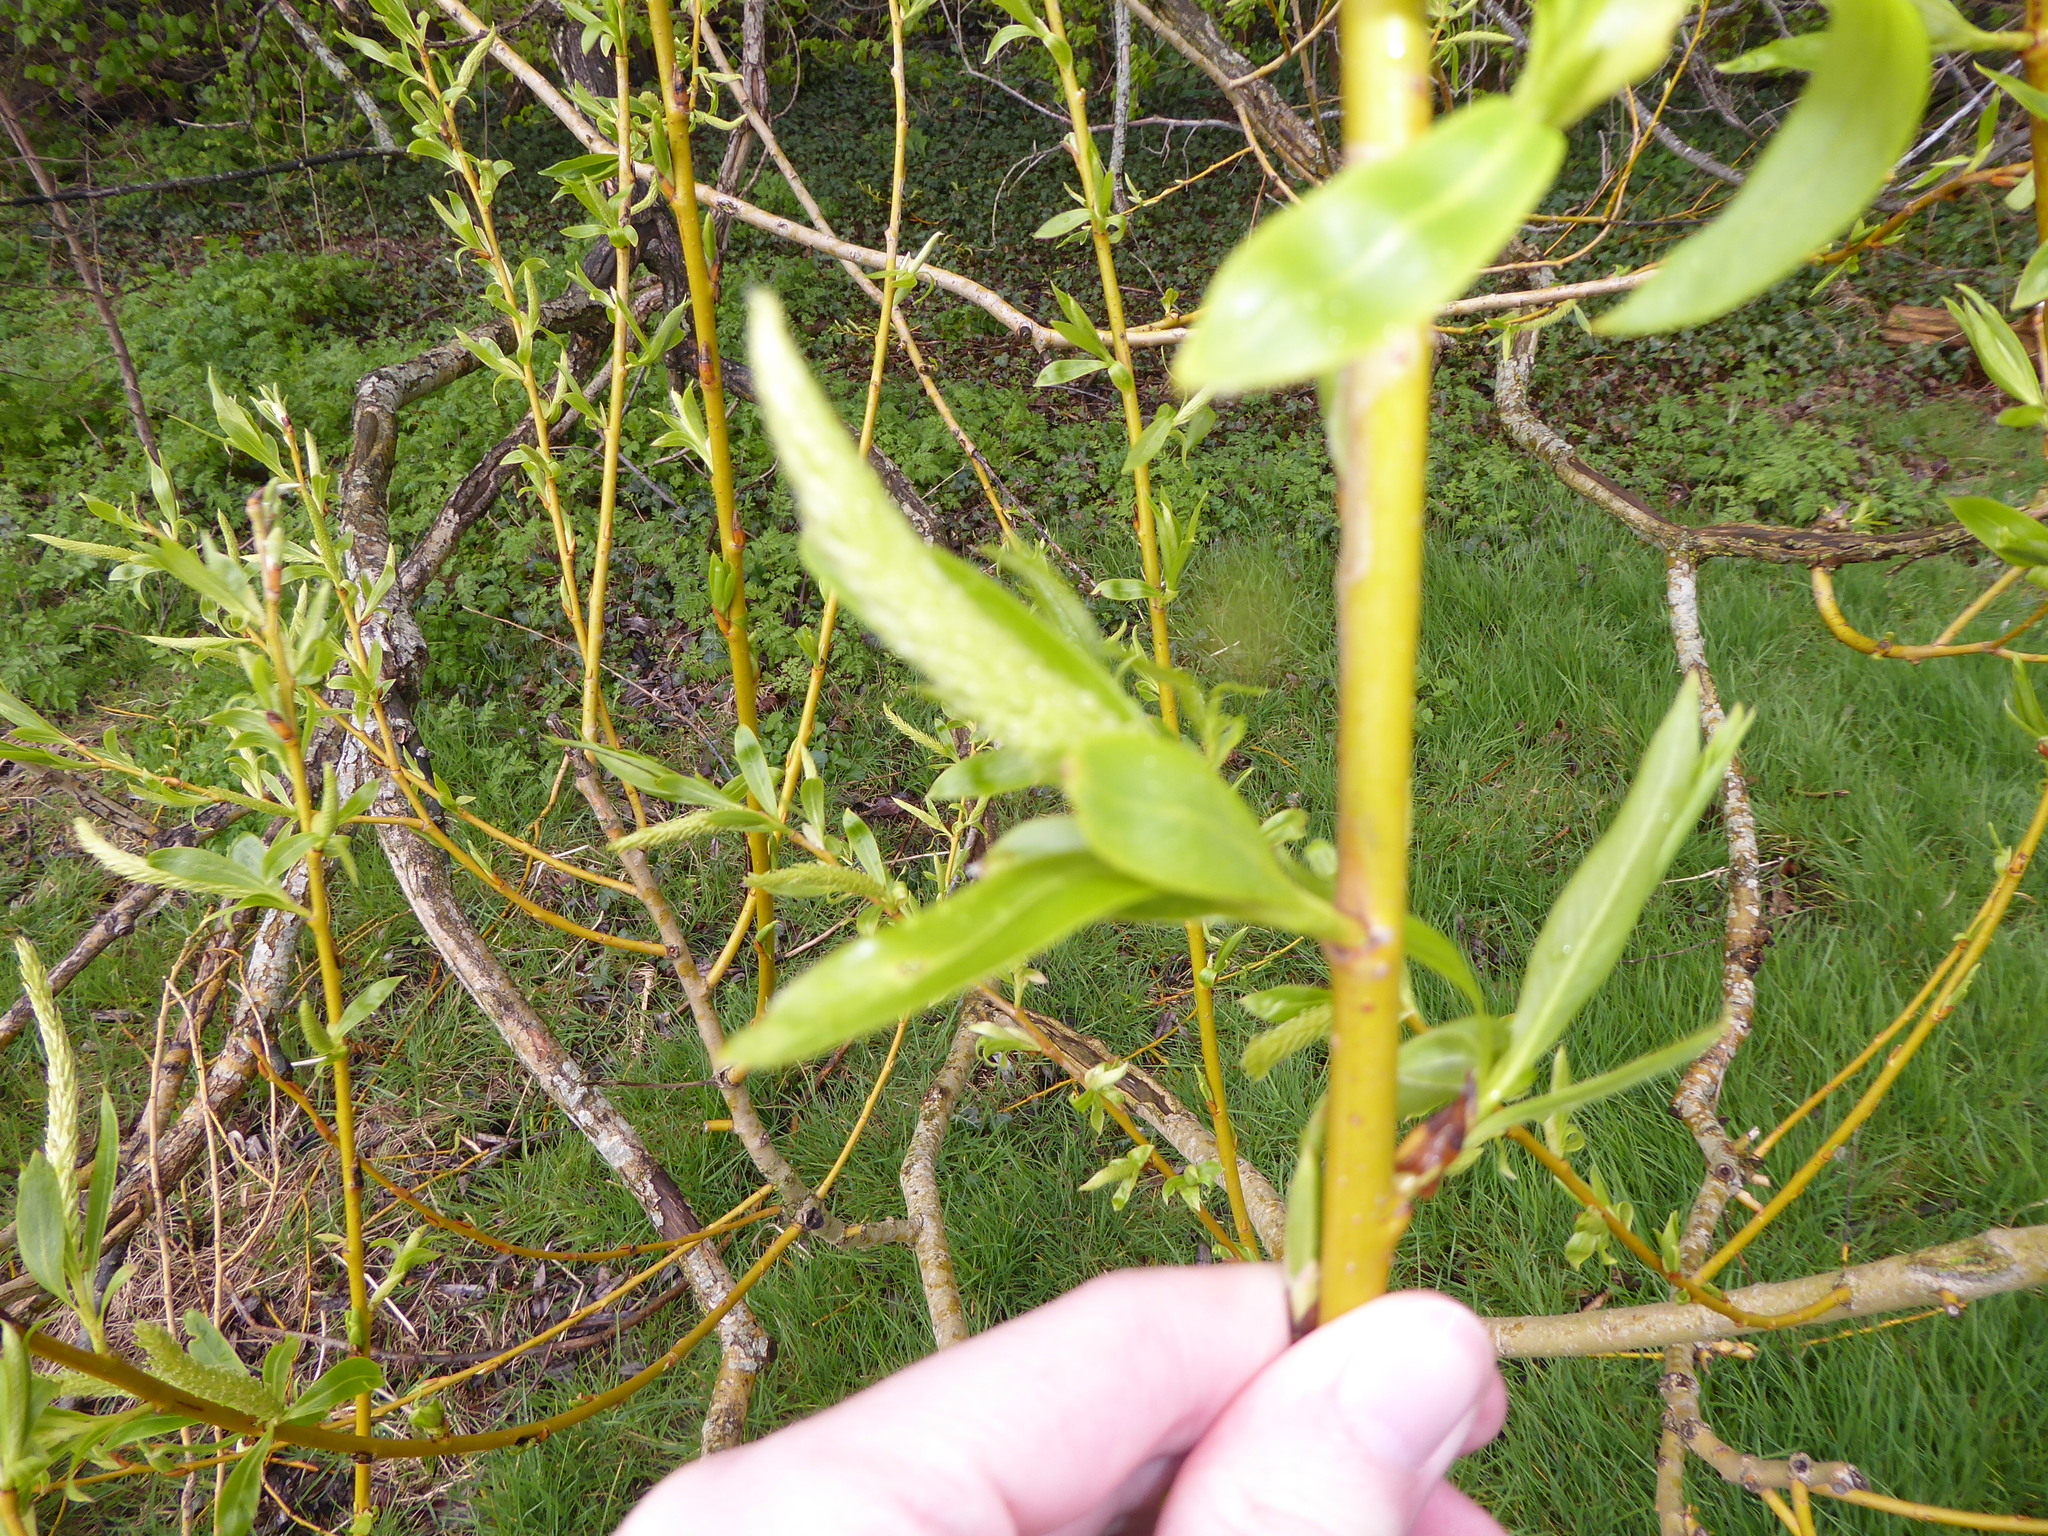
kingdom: Plantae
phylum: Tracheophyta
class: Magnoliopsida
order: Malpighiales
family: Salicaceae
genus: Salix
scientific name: Salix fragilis
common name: Crack willow
